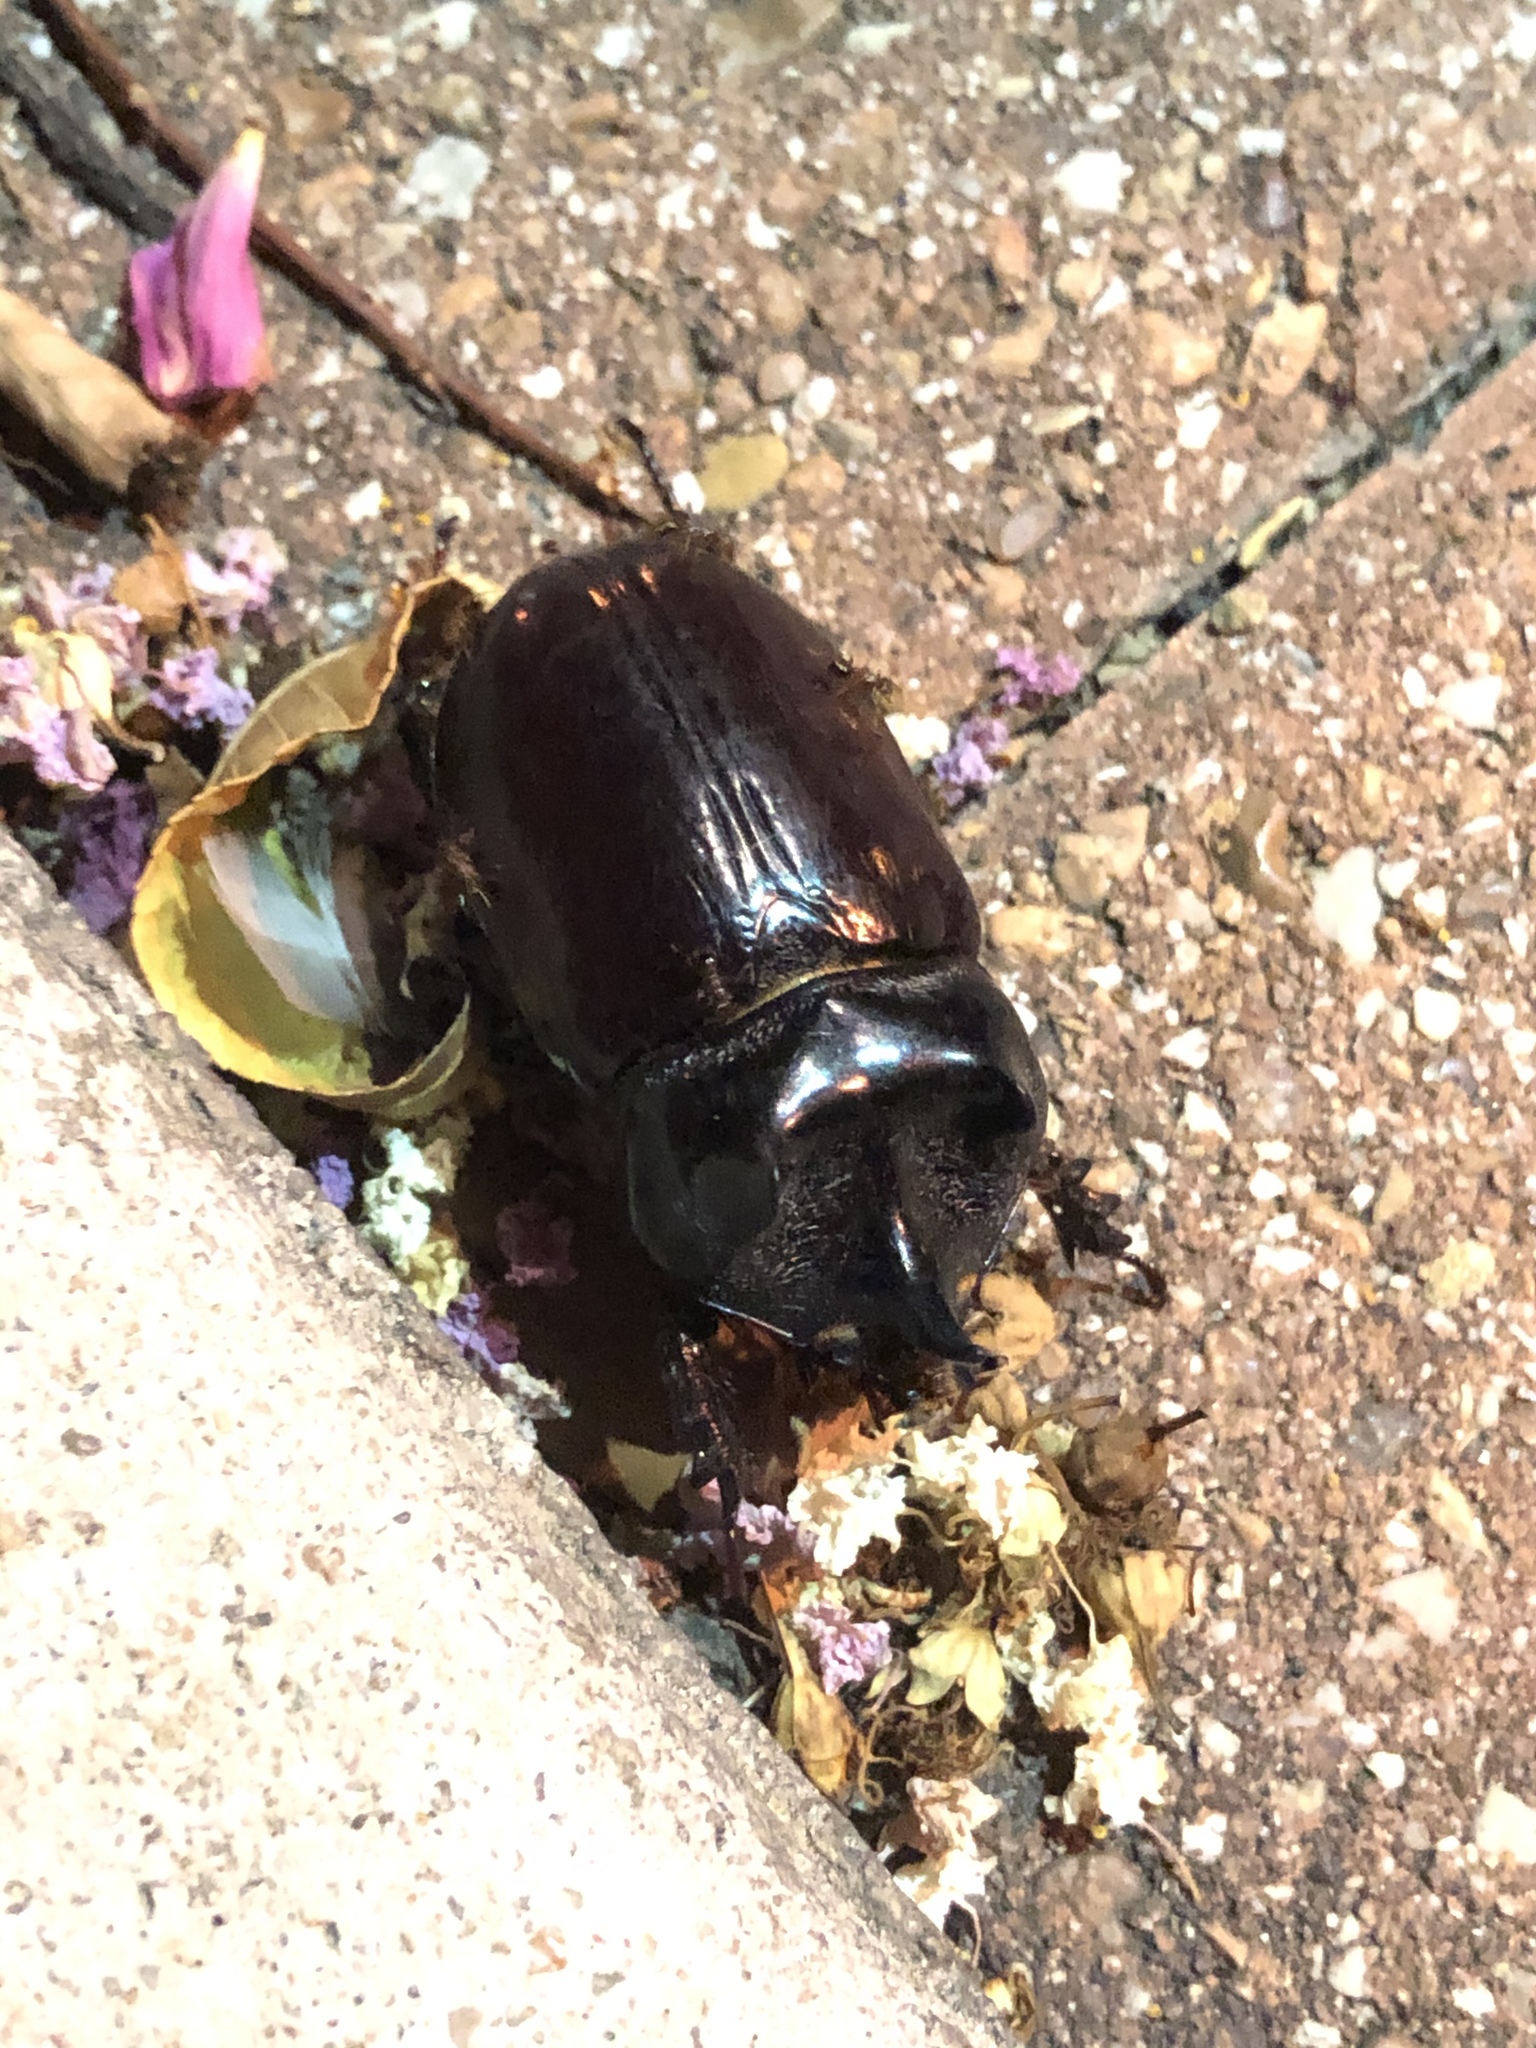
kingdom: Animalia
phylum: Arthropoda
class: Insecta
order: Coleoptera
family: Scarabaeidae
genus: Strategus
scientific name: Strategus aloeus
